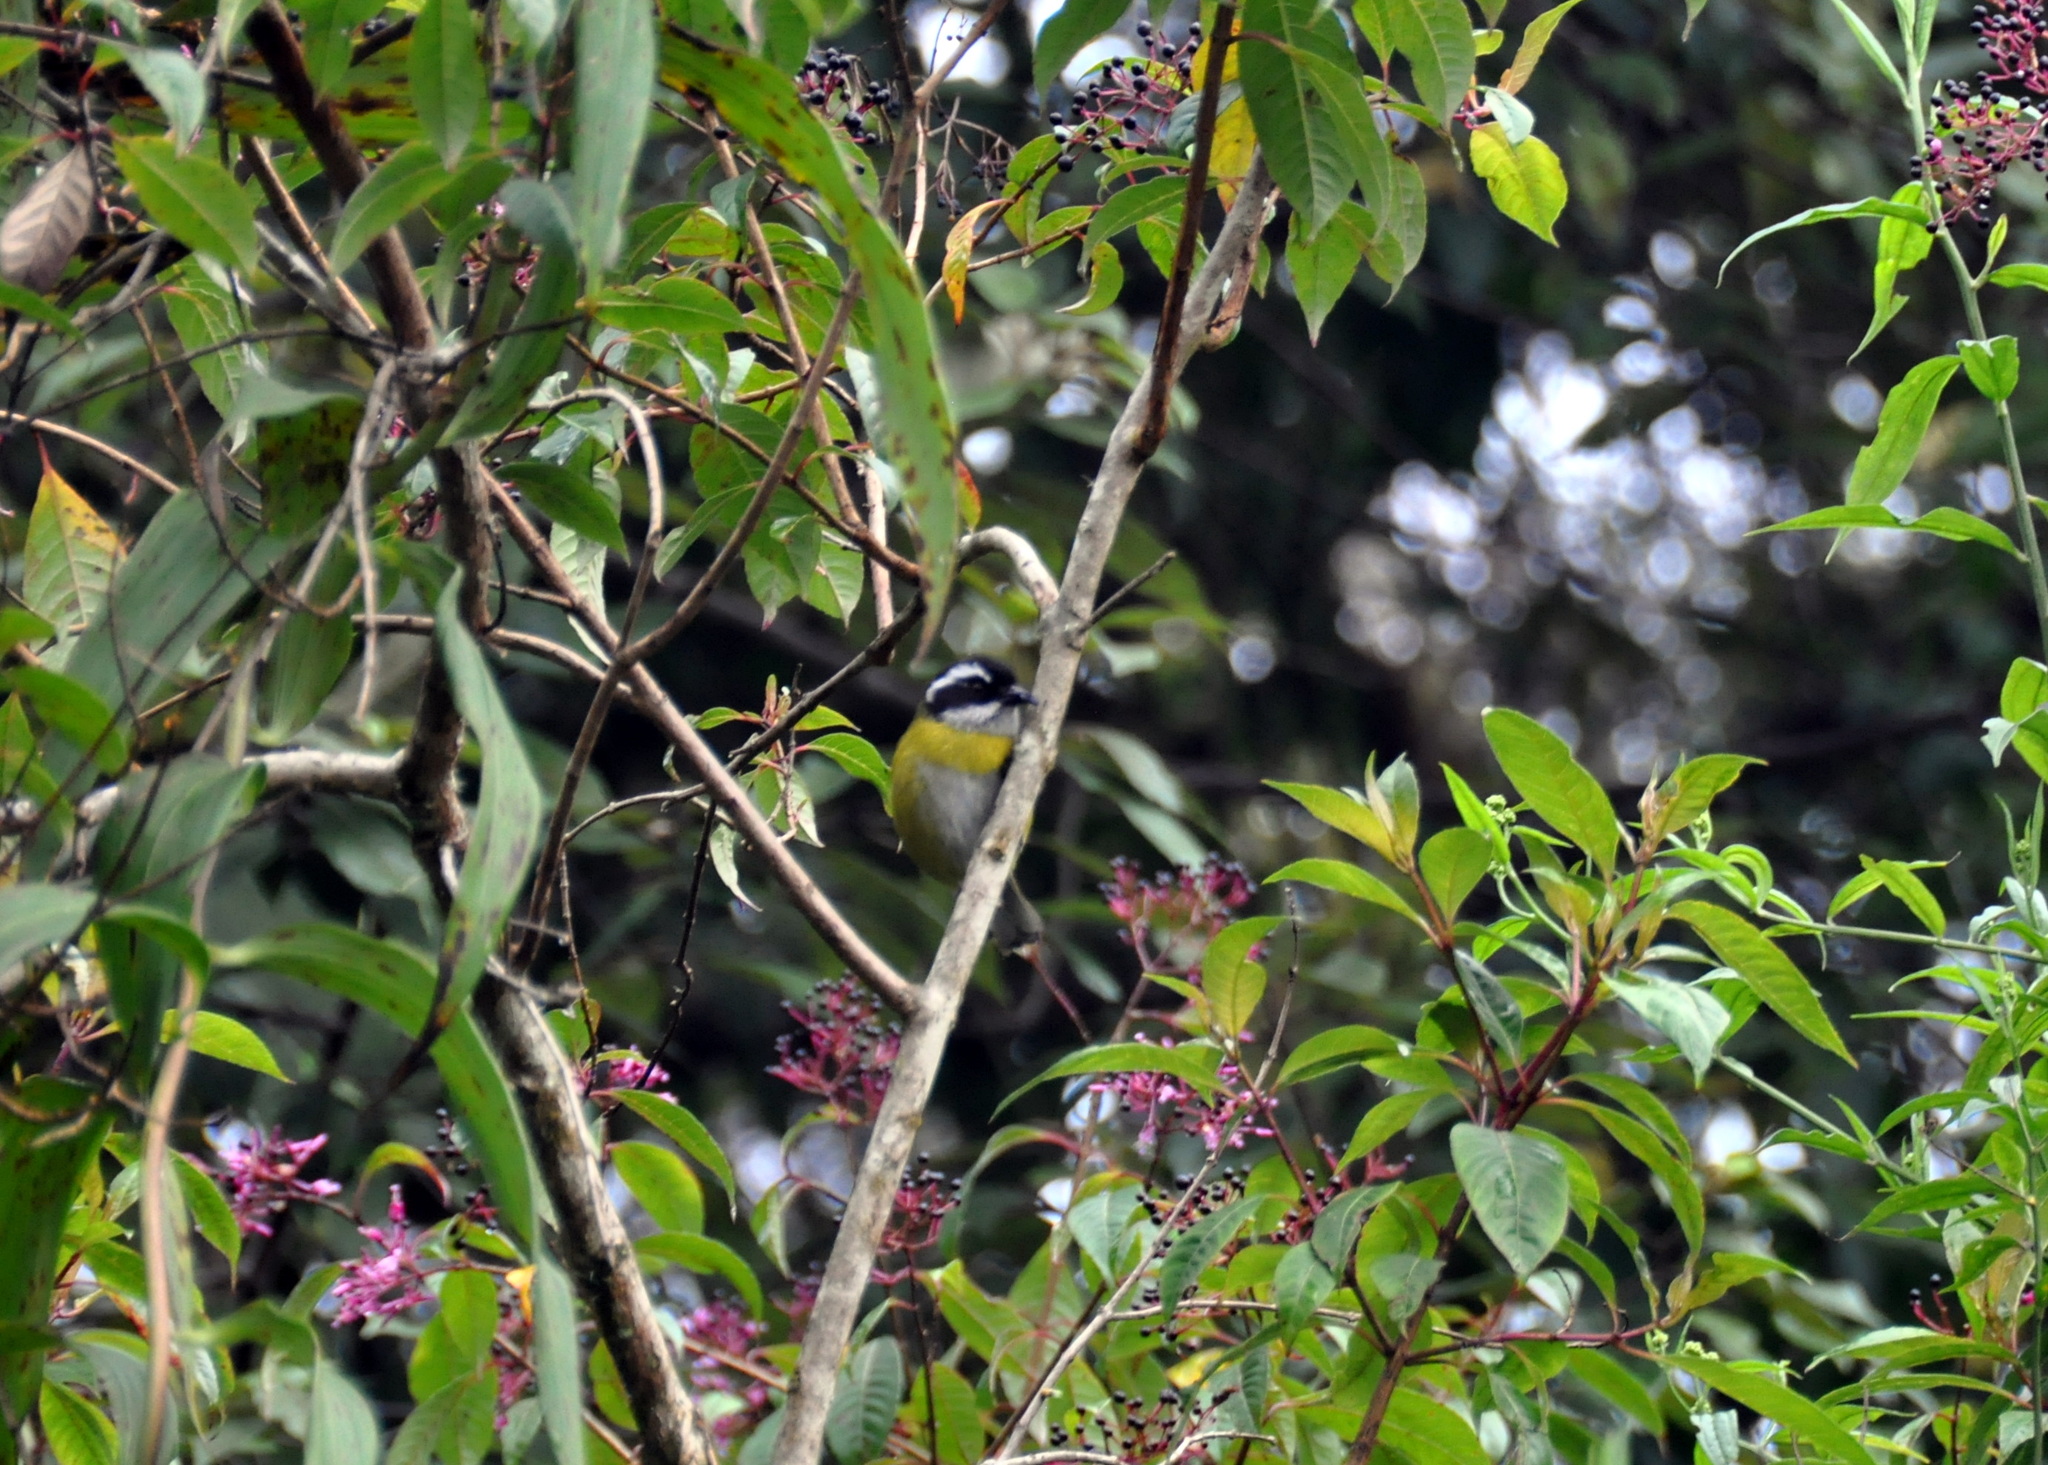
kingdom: Animalia
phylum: Chordata
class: Aves
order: Passeriformes
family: Passerellidae
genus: Chlorospingus
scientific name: Chlorospingus pileatus
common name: Sooty-capped bush-tanager
